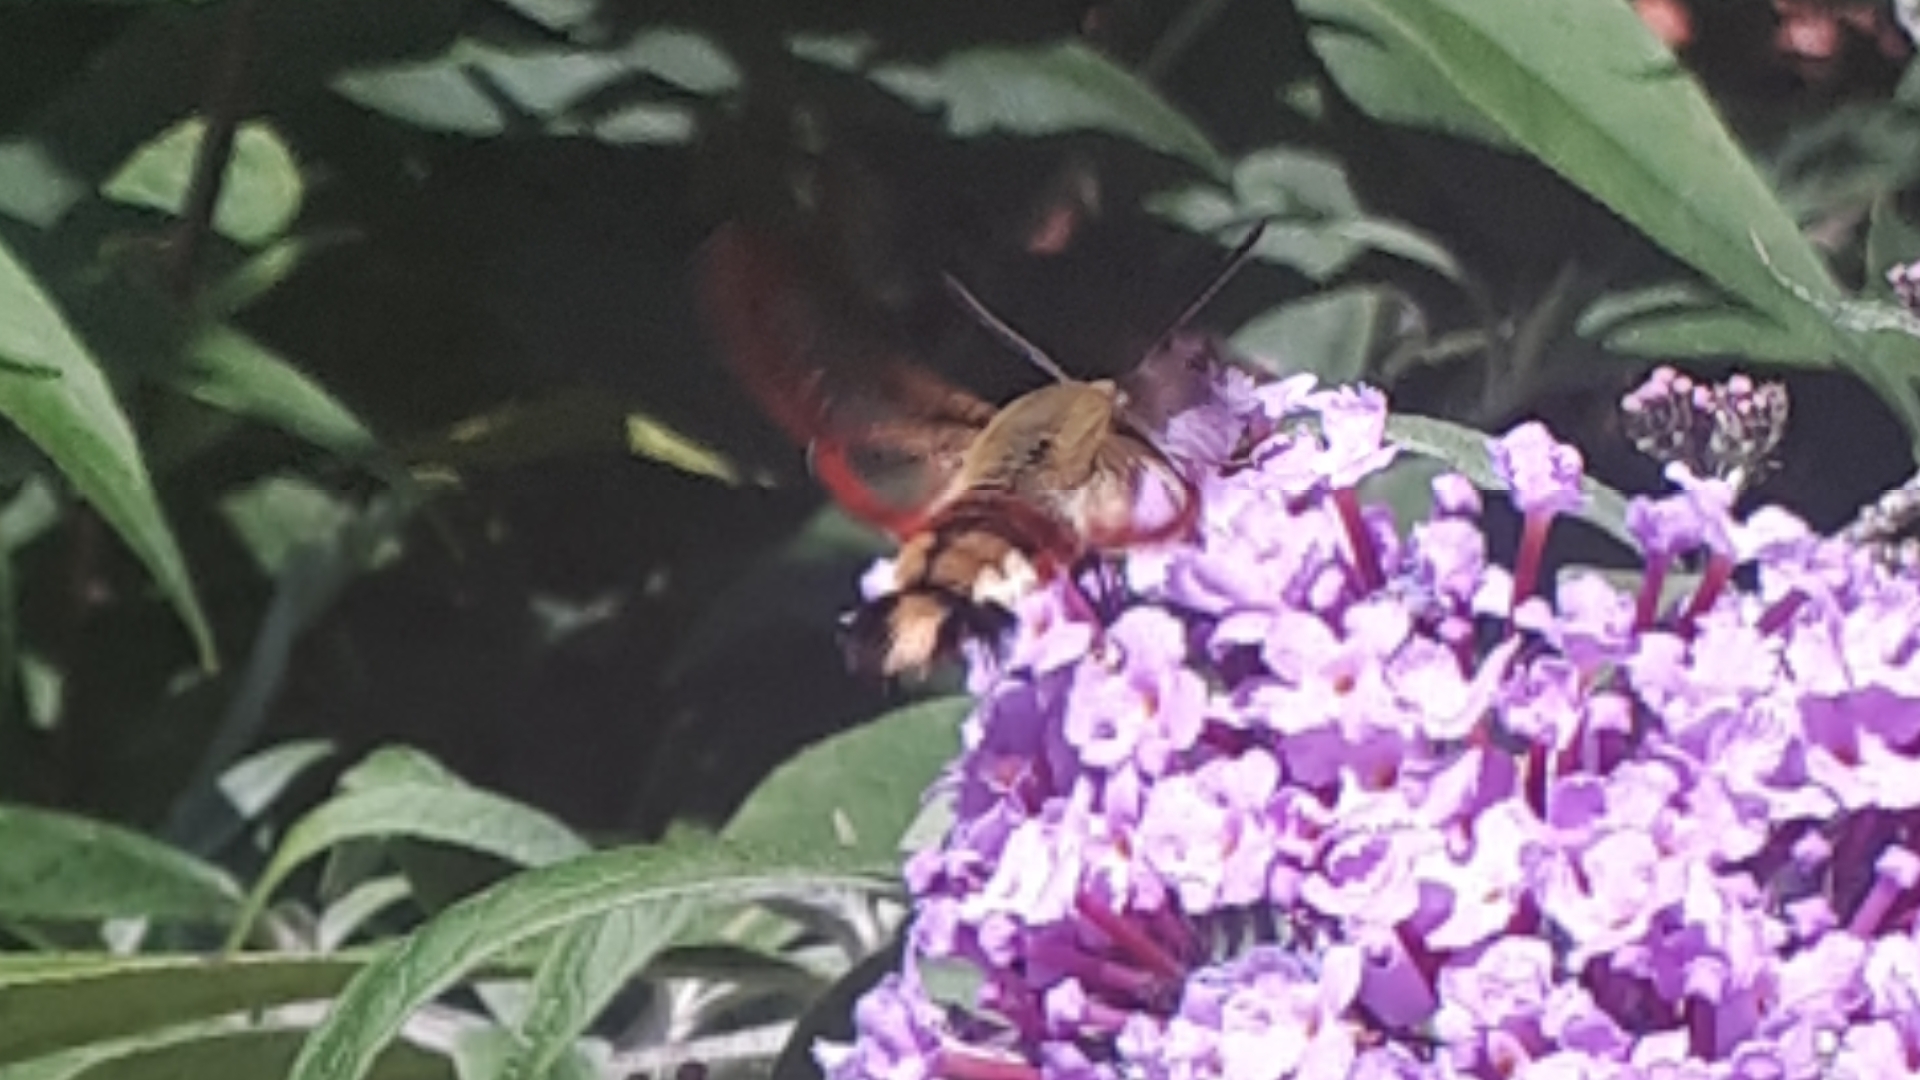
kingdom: Animalia
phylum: Arthropoda
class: Insecta
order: Lepidoptera
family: Sphingidae
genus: Hemaris
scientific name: Hemaris fuciformis
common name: Broad-bordered bee hawk-moth
